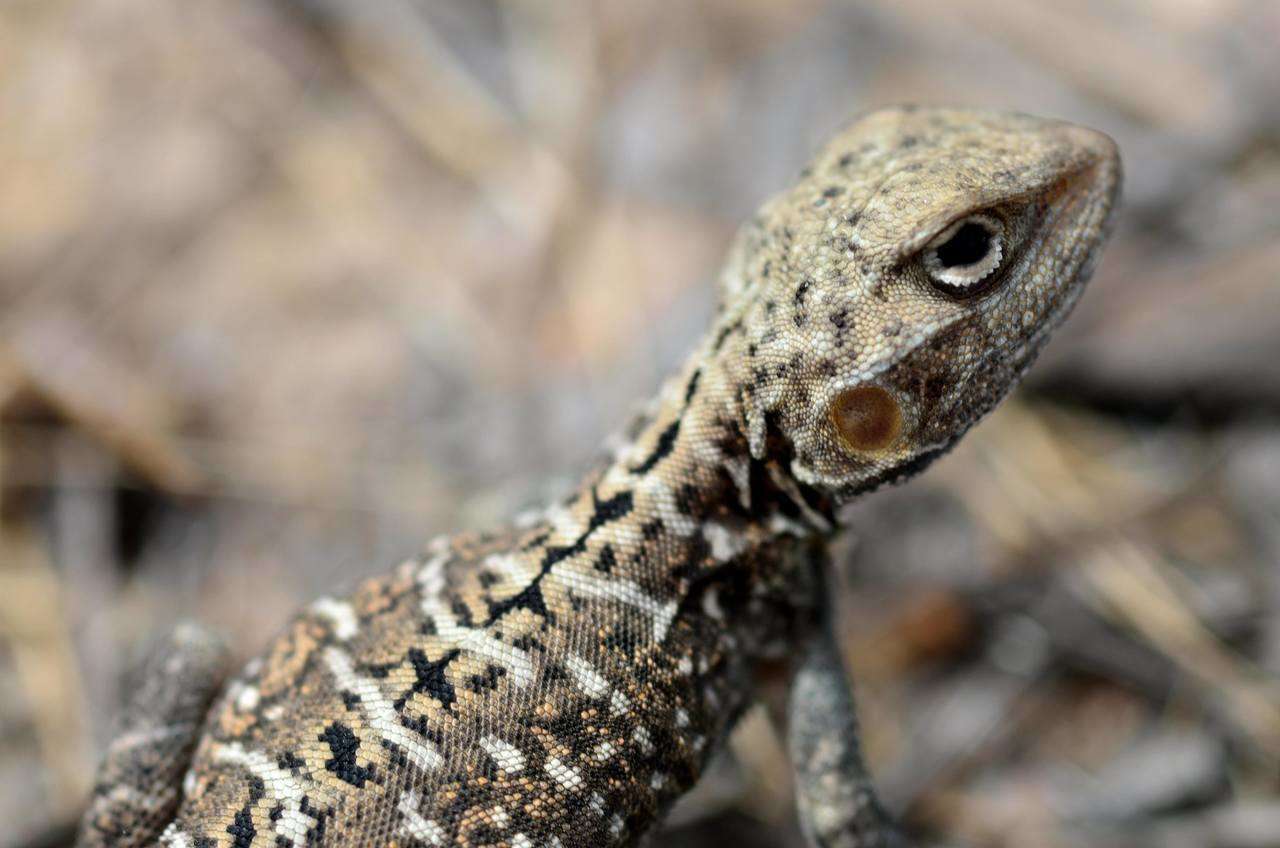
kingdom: Animalia
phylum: Chordata
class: Squamata
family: Agamidae
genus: Ctenophorus
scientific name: Ctenophorus pictus
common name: Painted dragon
